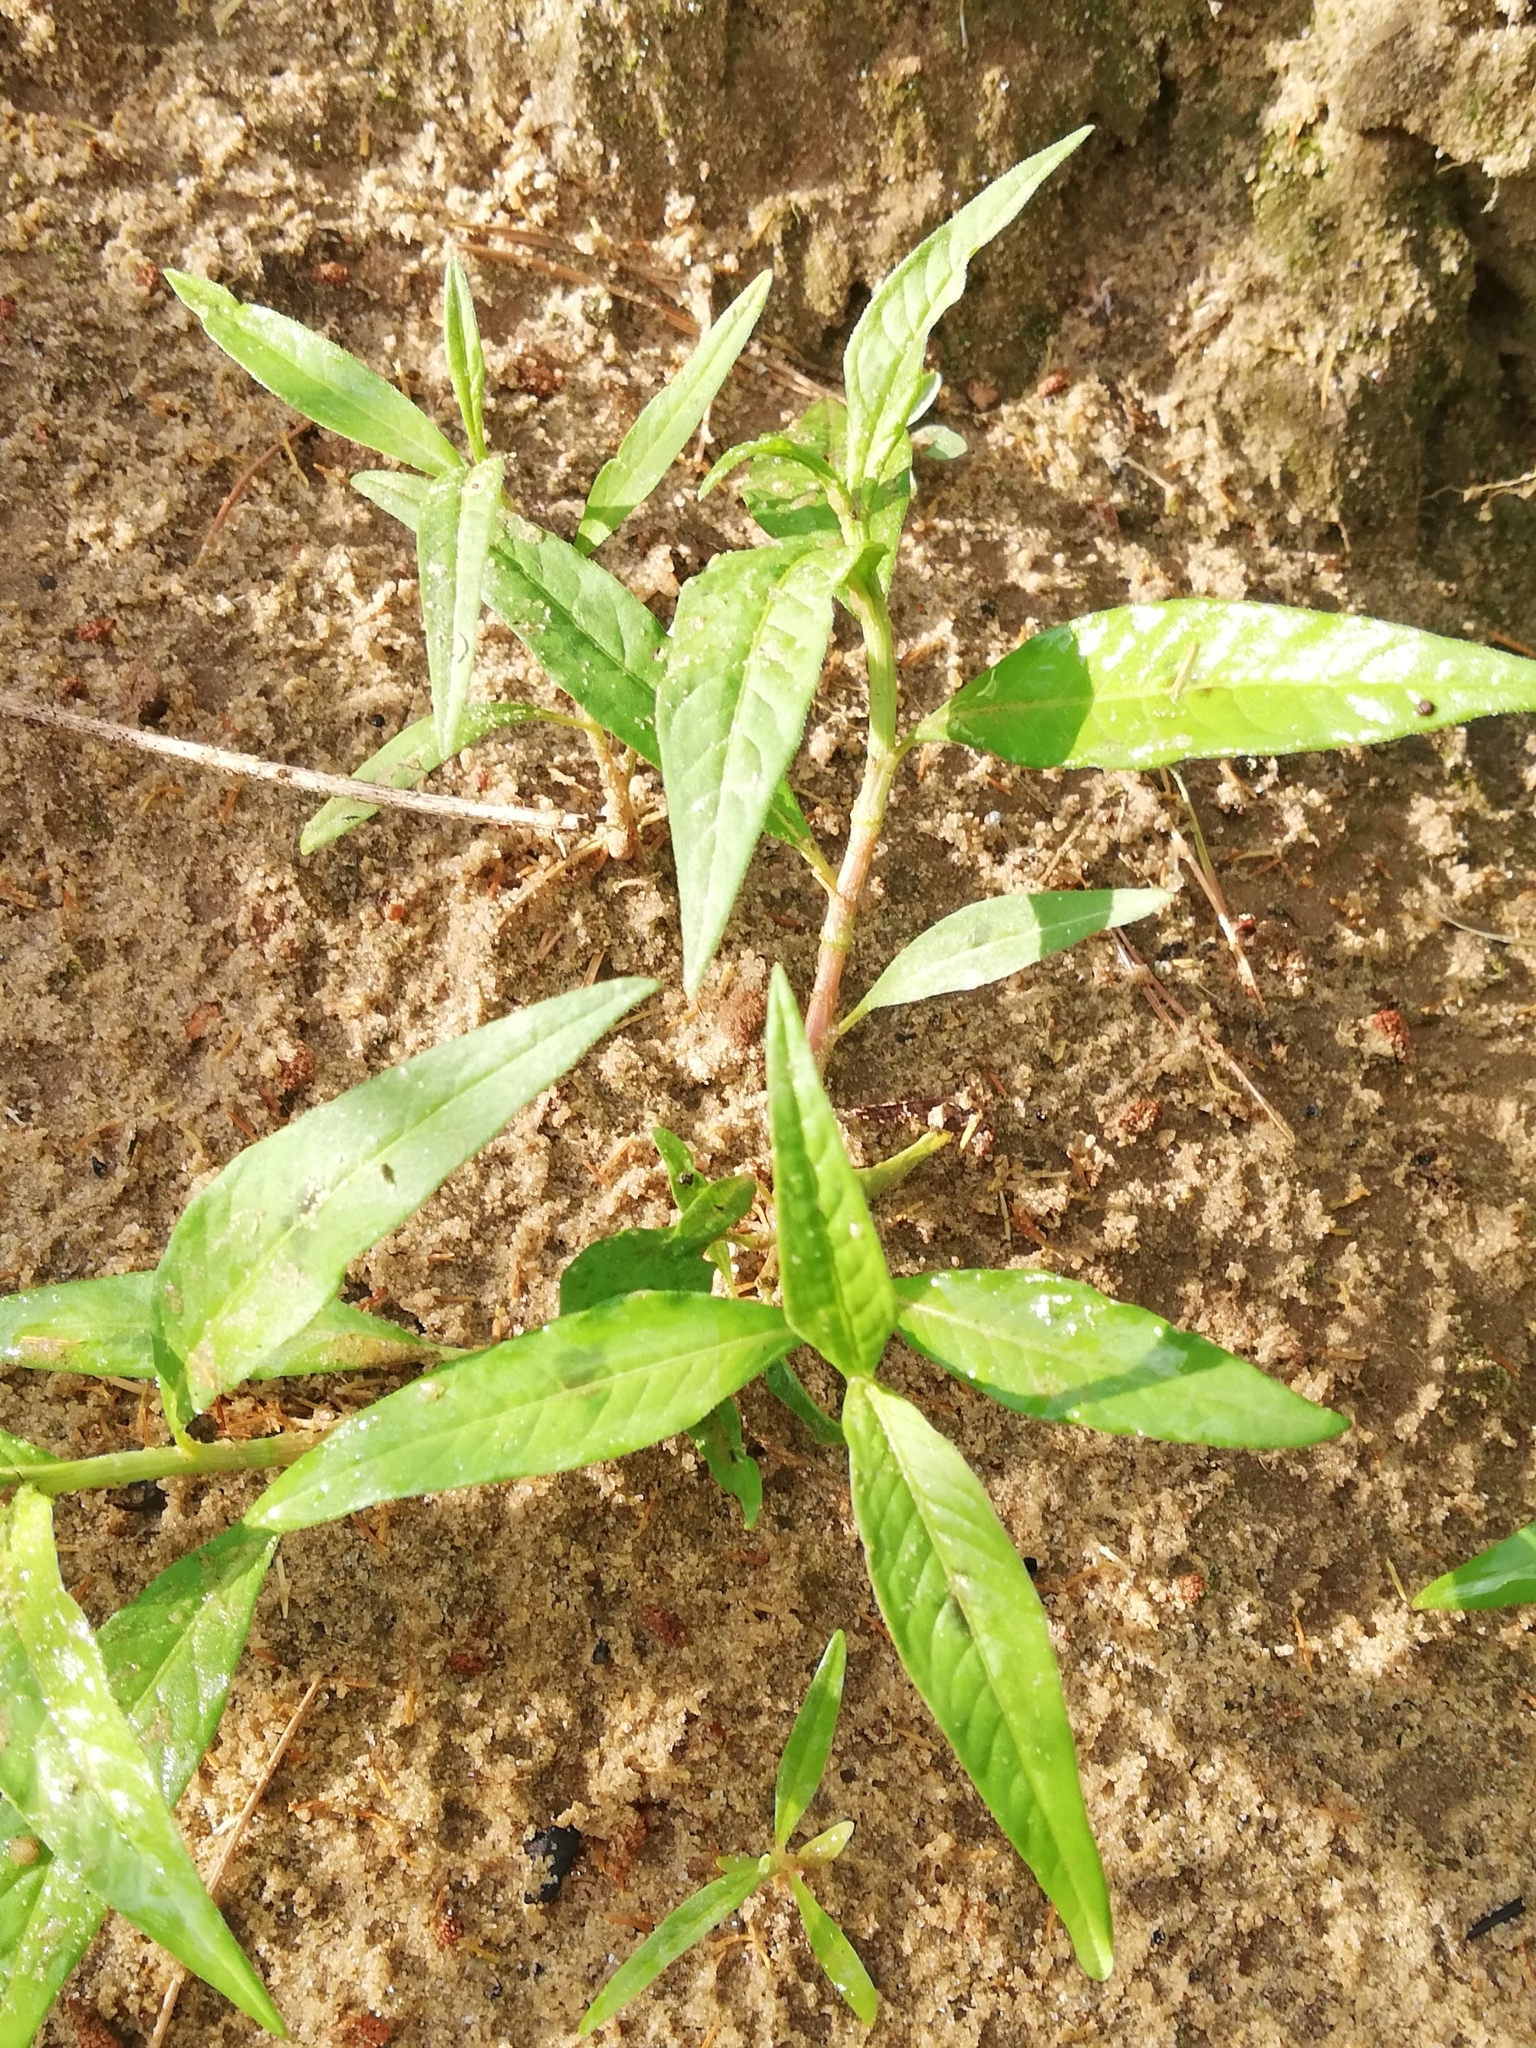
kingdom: Plantae
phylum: Tracheophyta
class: Magnoliopsida
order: Caryophyllales
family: Polygonaceae
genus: Persicaria
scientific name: Persicaria lapathifolia
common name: Curlytop knotweed
